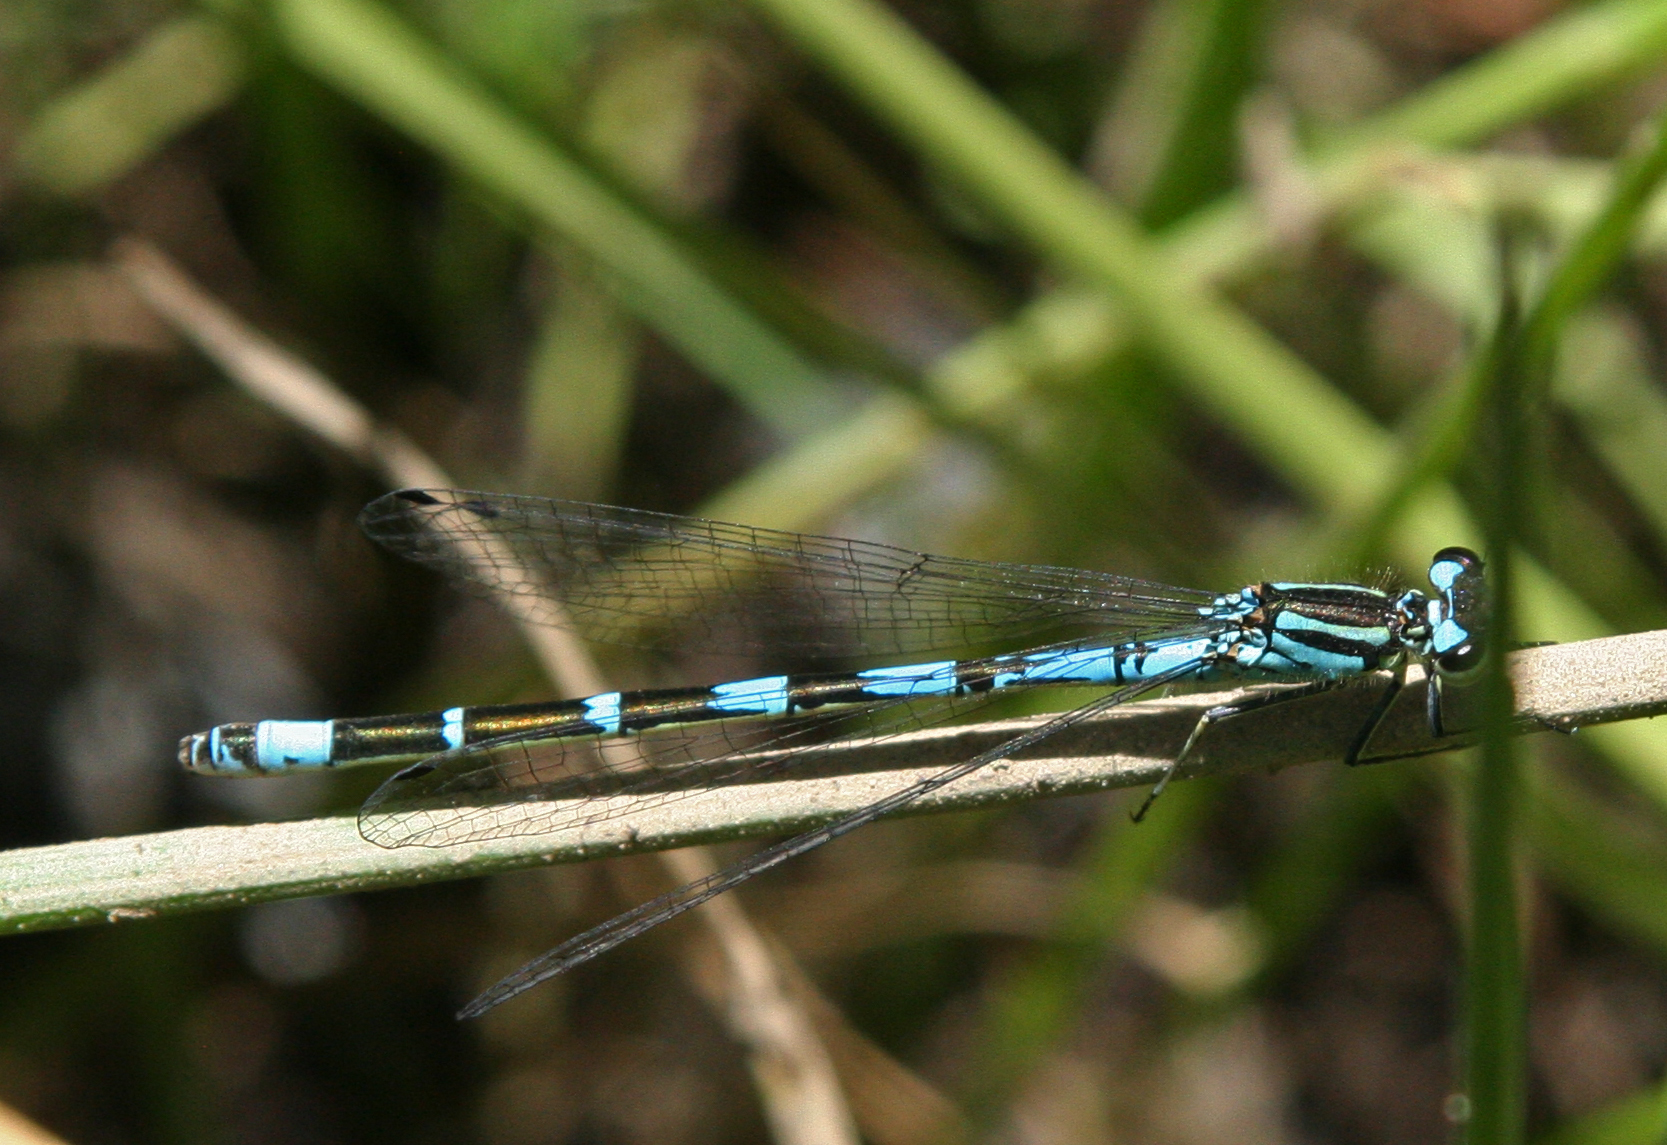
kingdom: Animalia
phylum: Arthropoda
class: Insecta
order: Odonata
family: Coenagrionidae
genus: Coenagrion
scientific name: Coenagrion persicum
